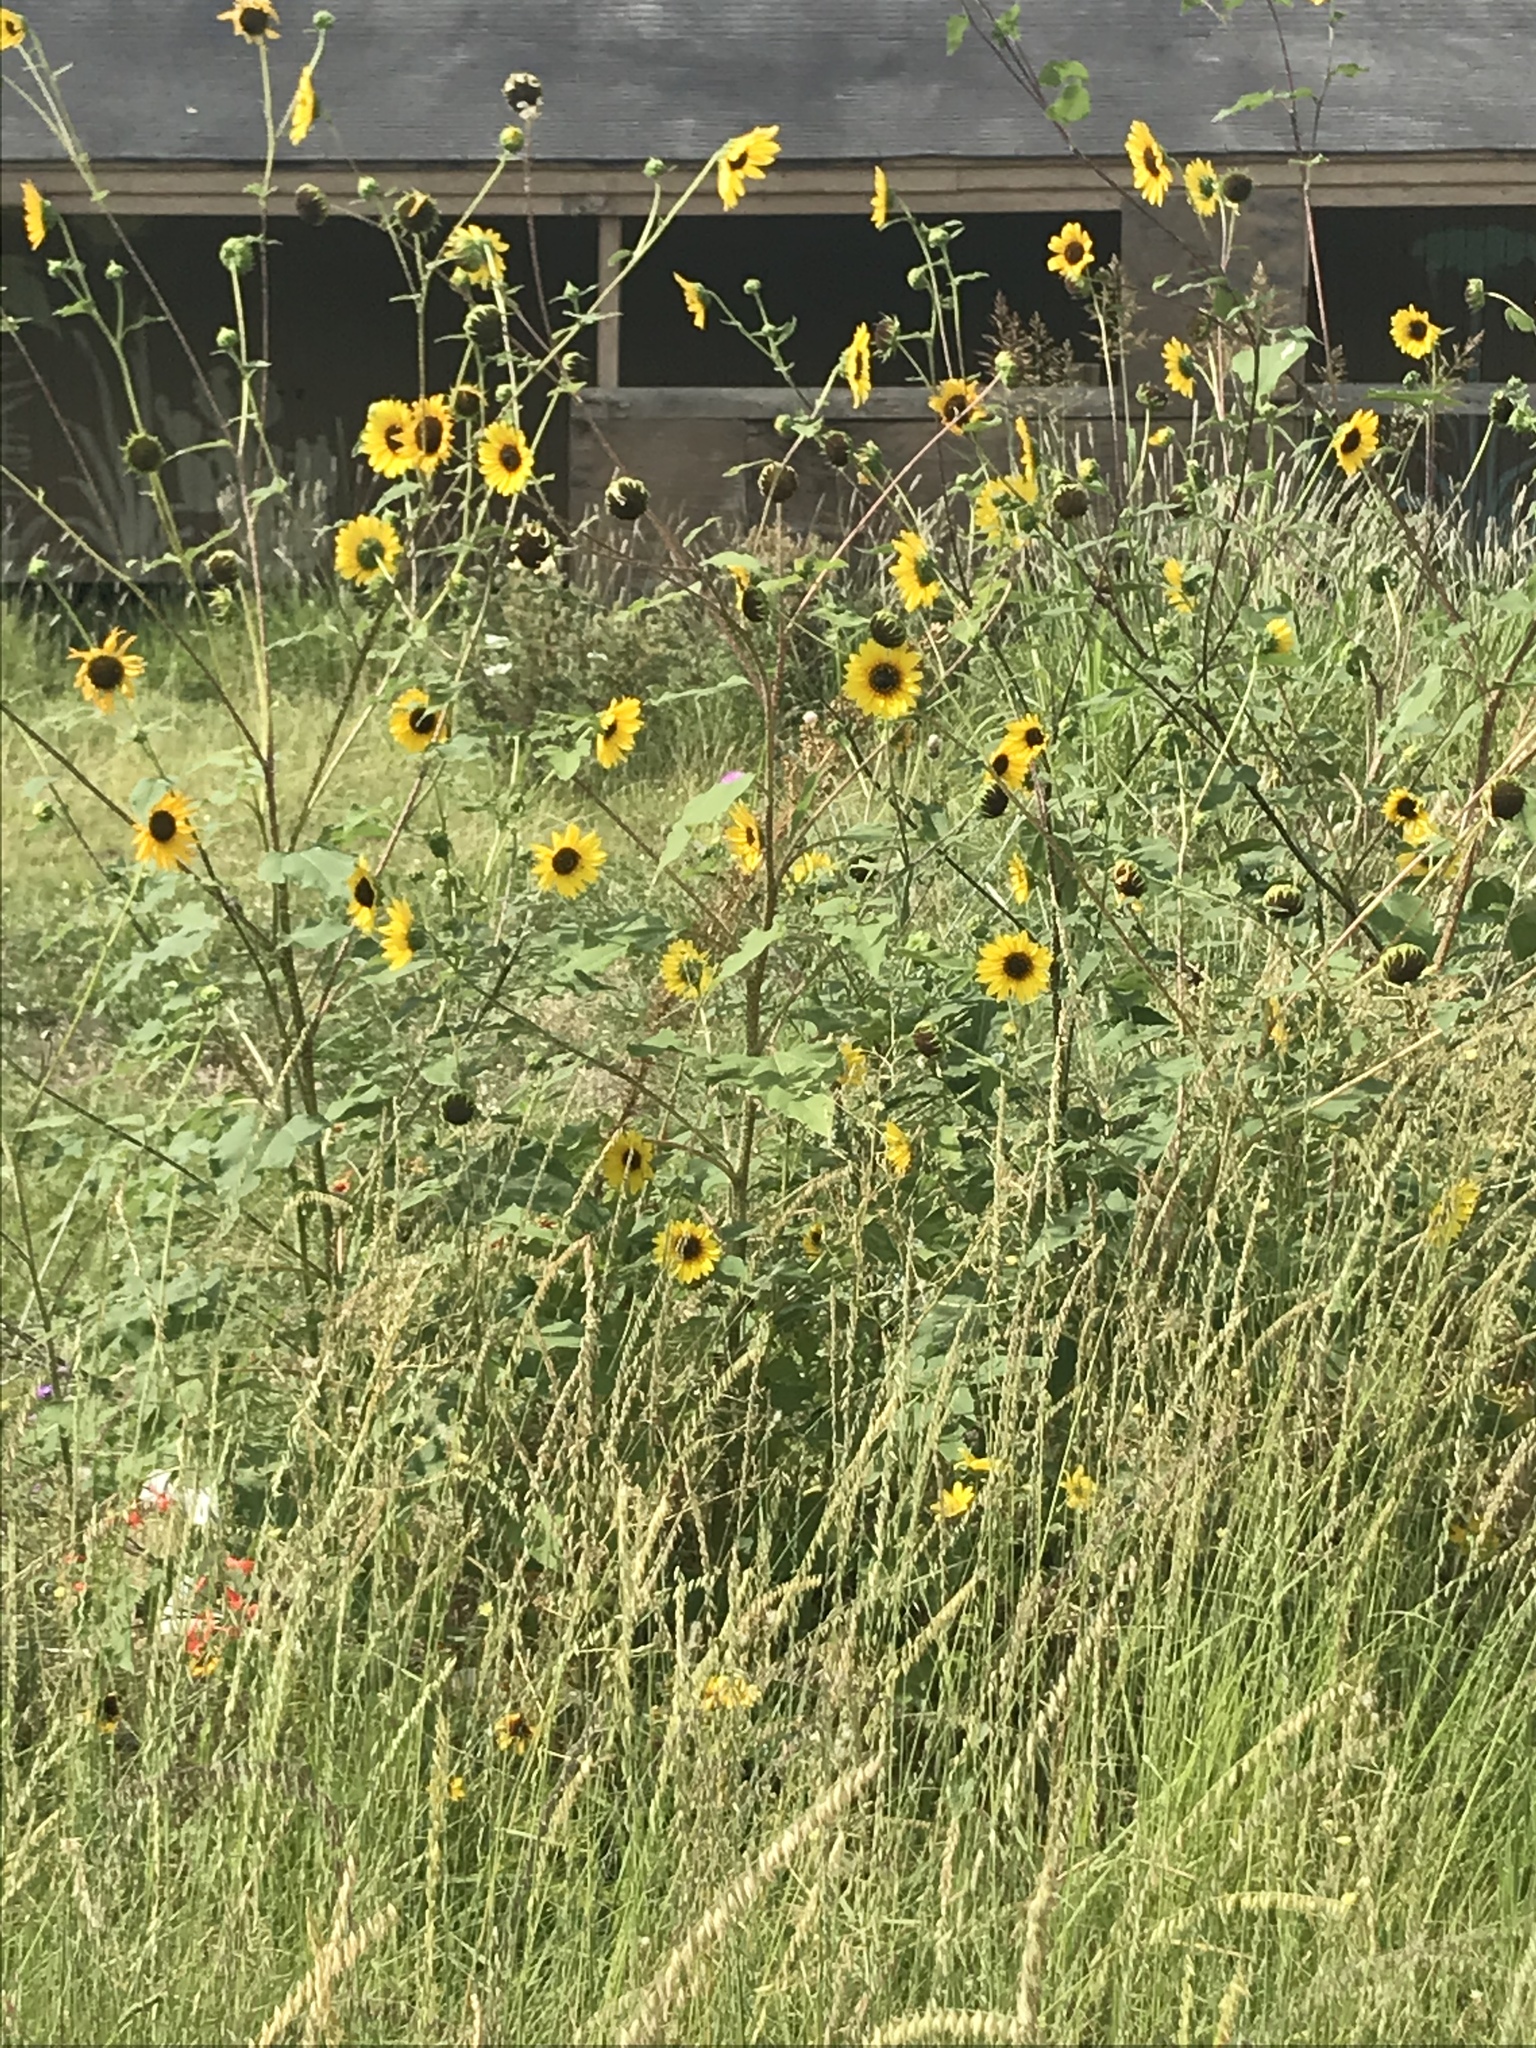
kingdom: Plantae
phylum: Tracheophyta
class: Magnoliopsida
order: Asterales
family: Asteraceae
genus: Helianthus
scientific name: Helianthus annuus
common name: Sunflower
